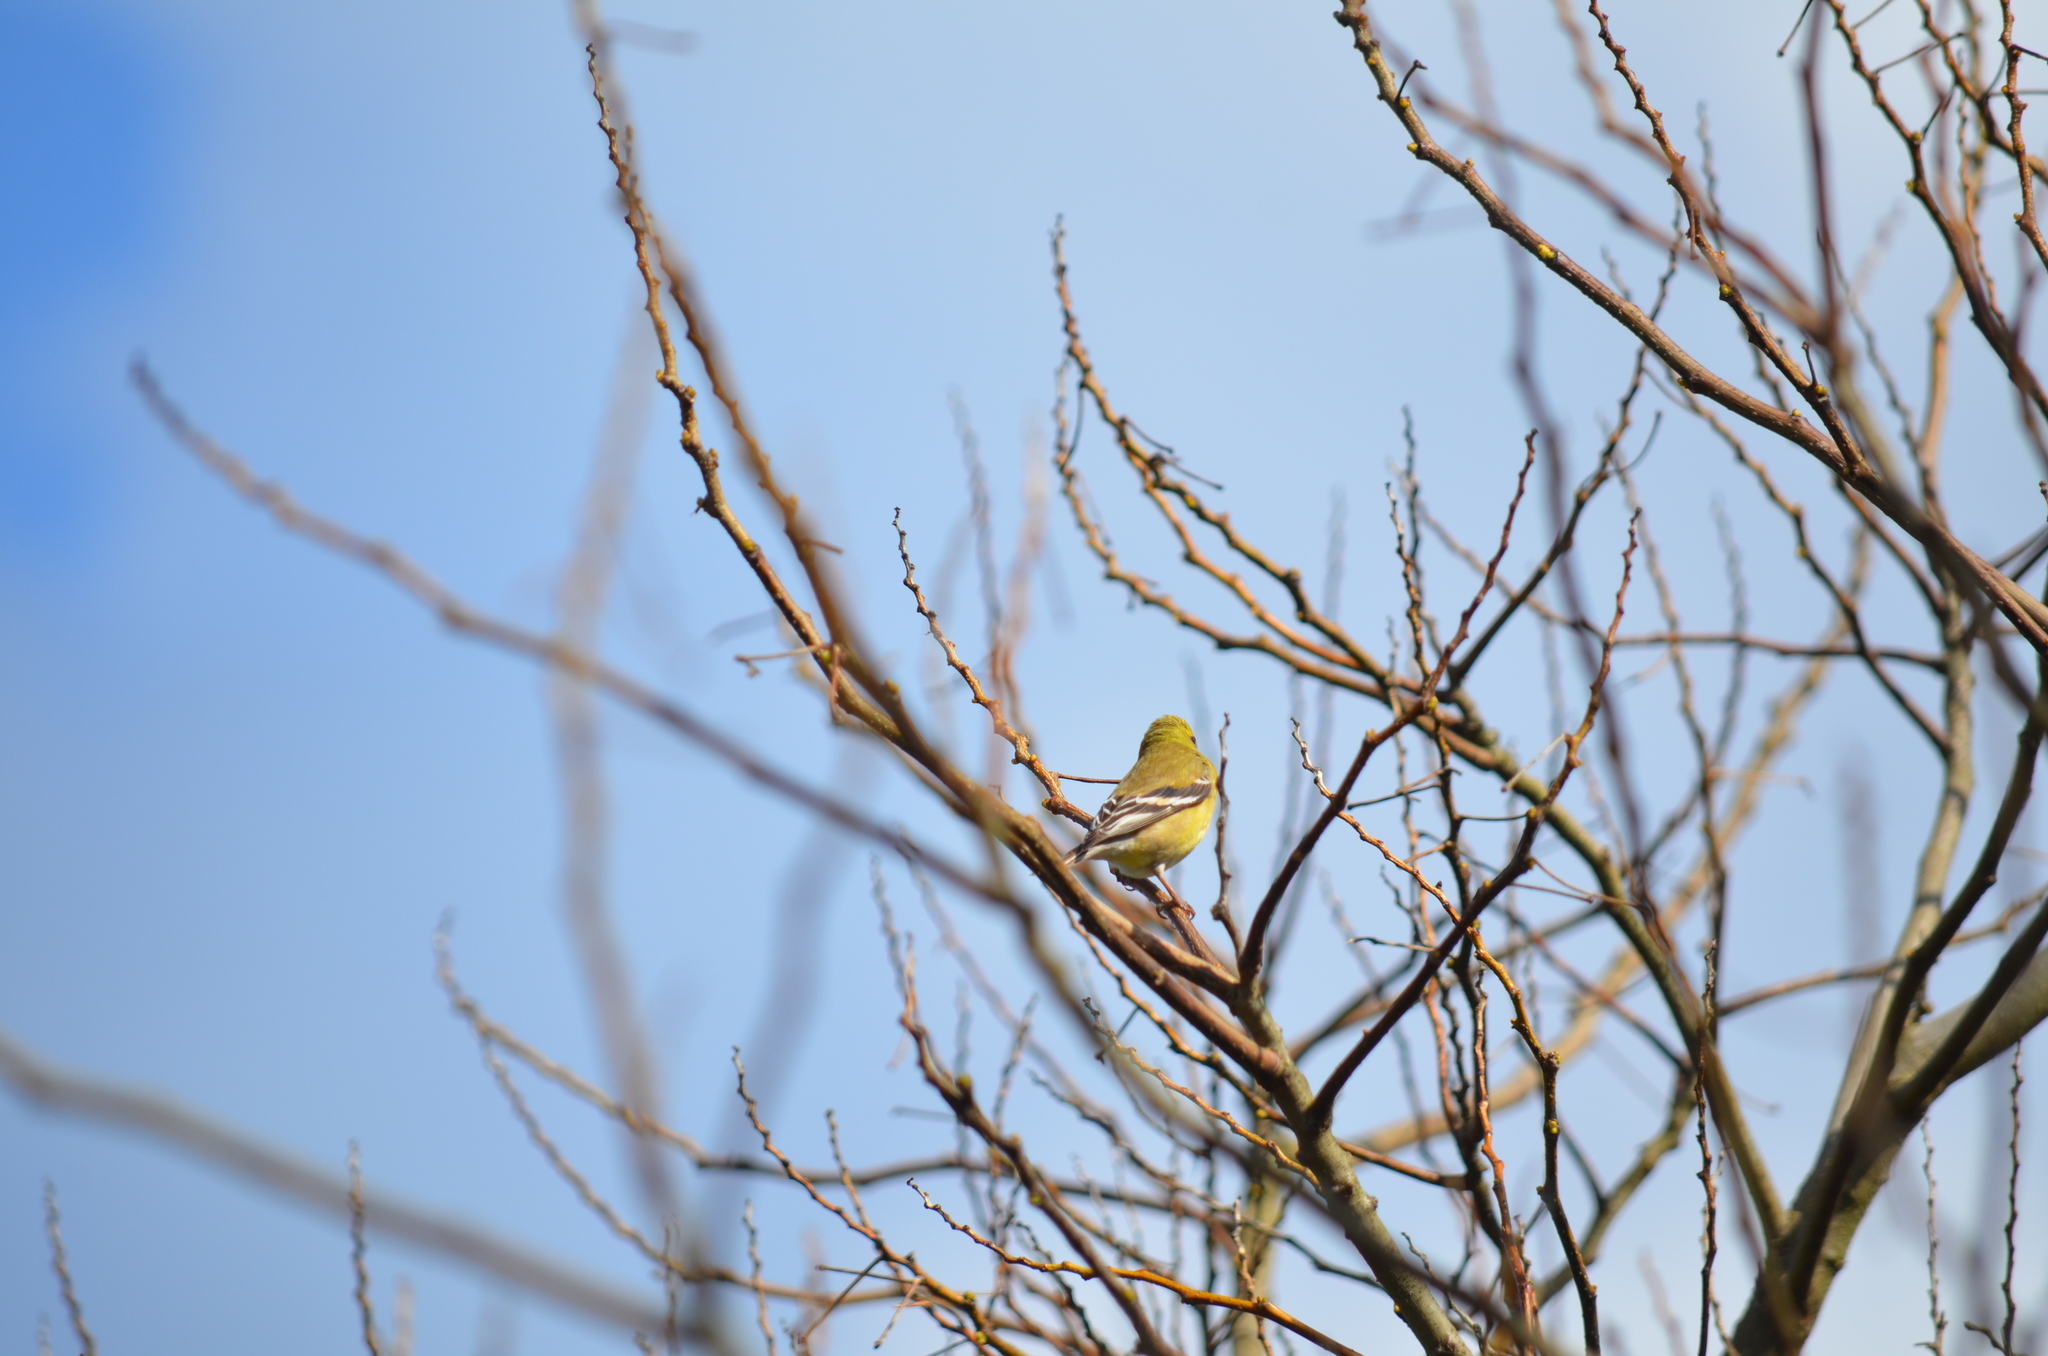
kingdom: Animalia
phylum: Chordata
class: Aves
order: Passeriformes
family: Fringillidae
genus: Spinus
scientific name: Spinus tristis
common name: American goldfinch
